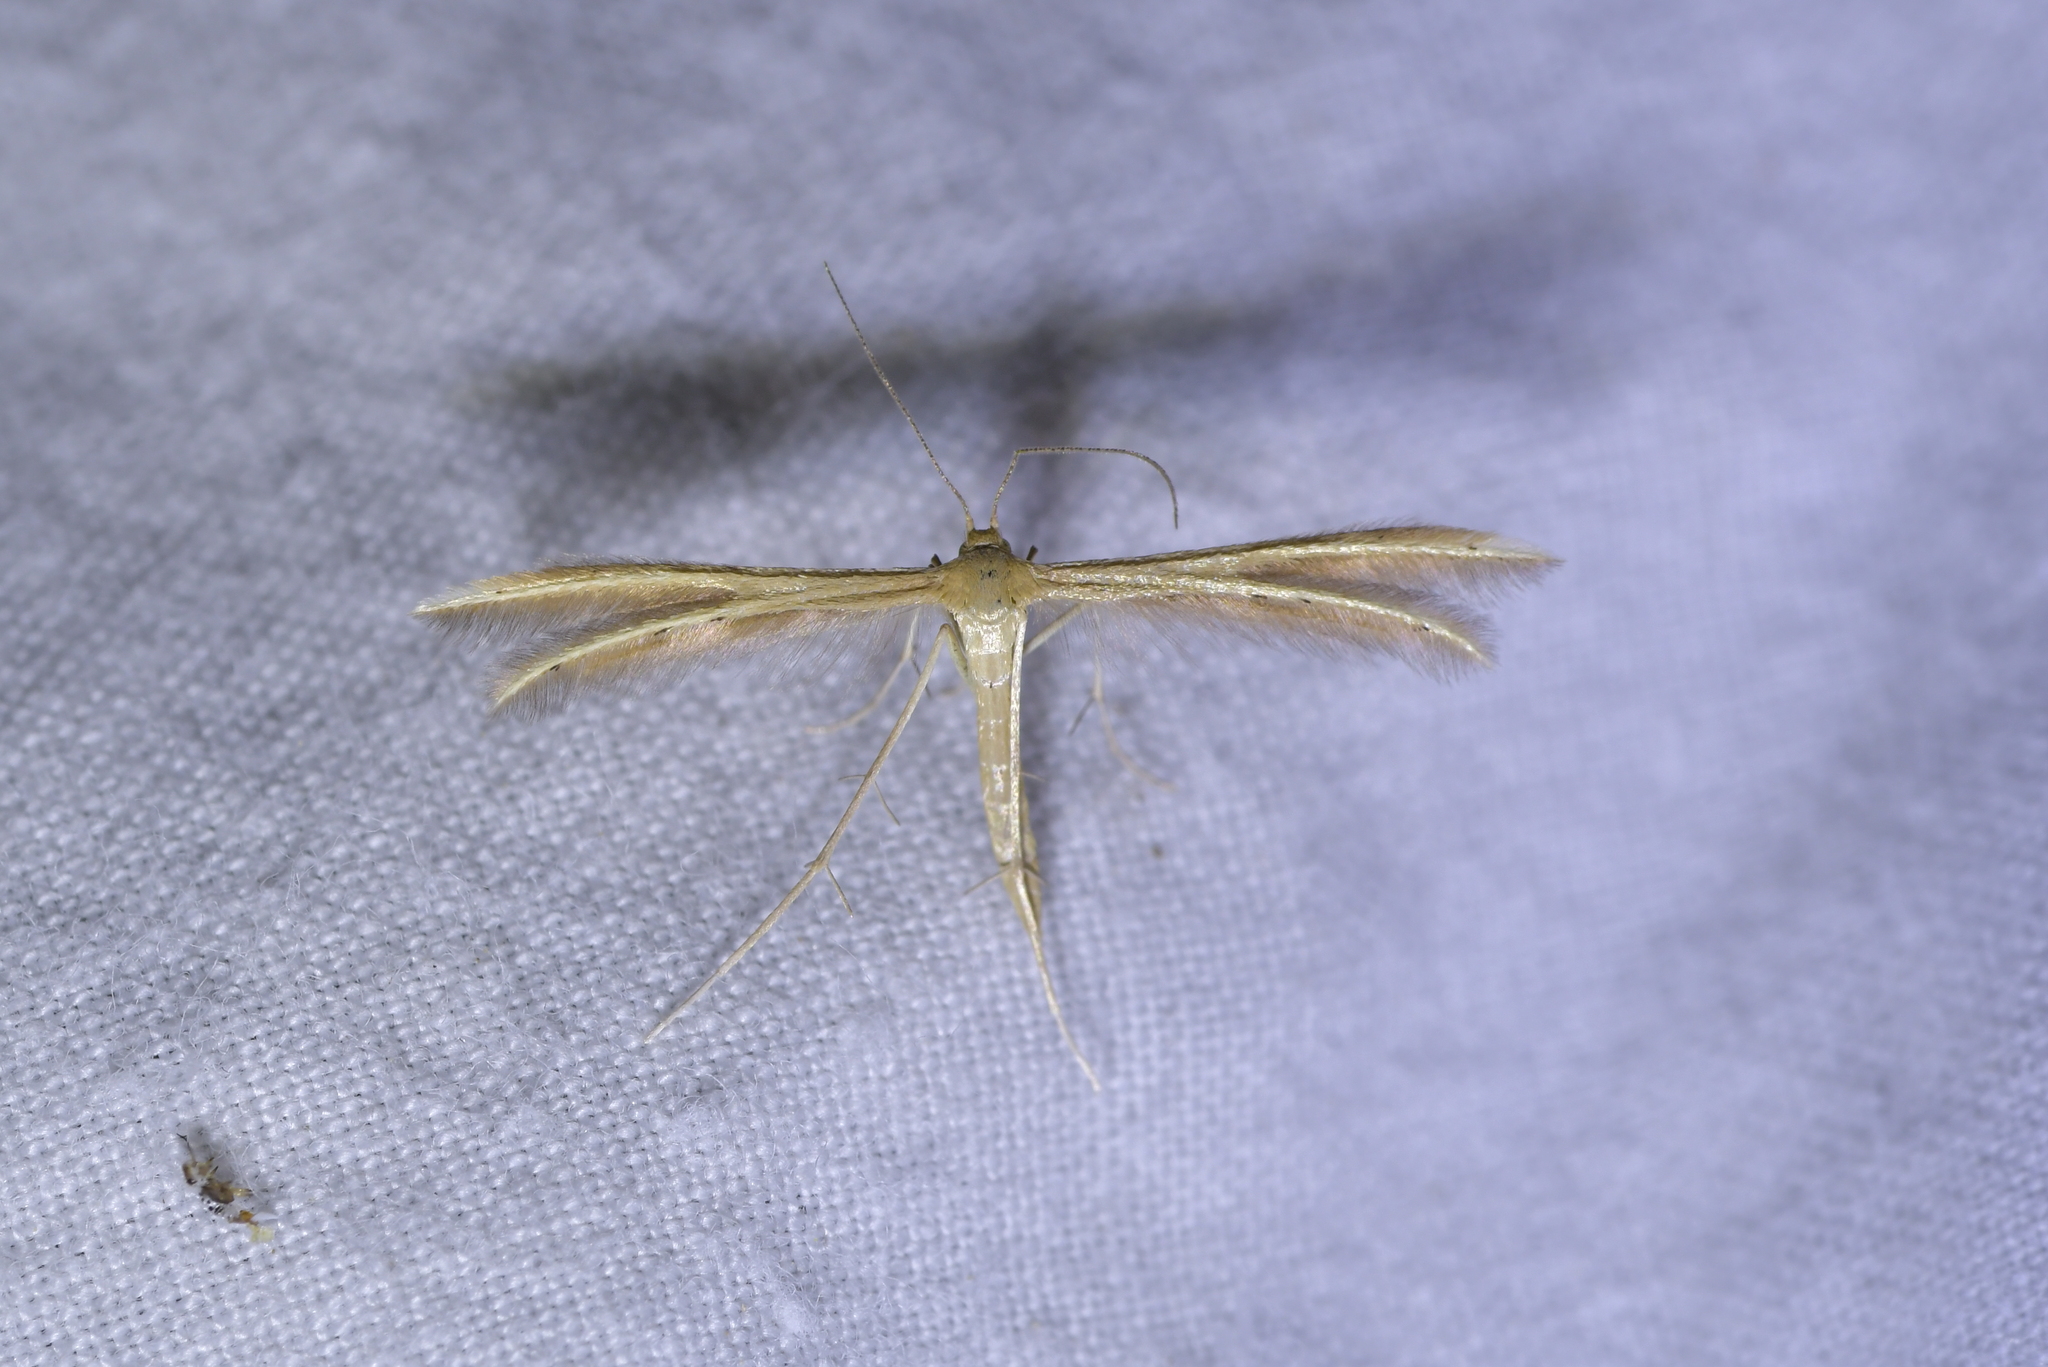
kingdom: Animalia
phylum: Arthropoda
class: Insecta
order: Lepidoptera
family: Pterophoridae
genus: Pterophorus
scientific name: Pterophorus innotatalis
